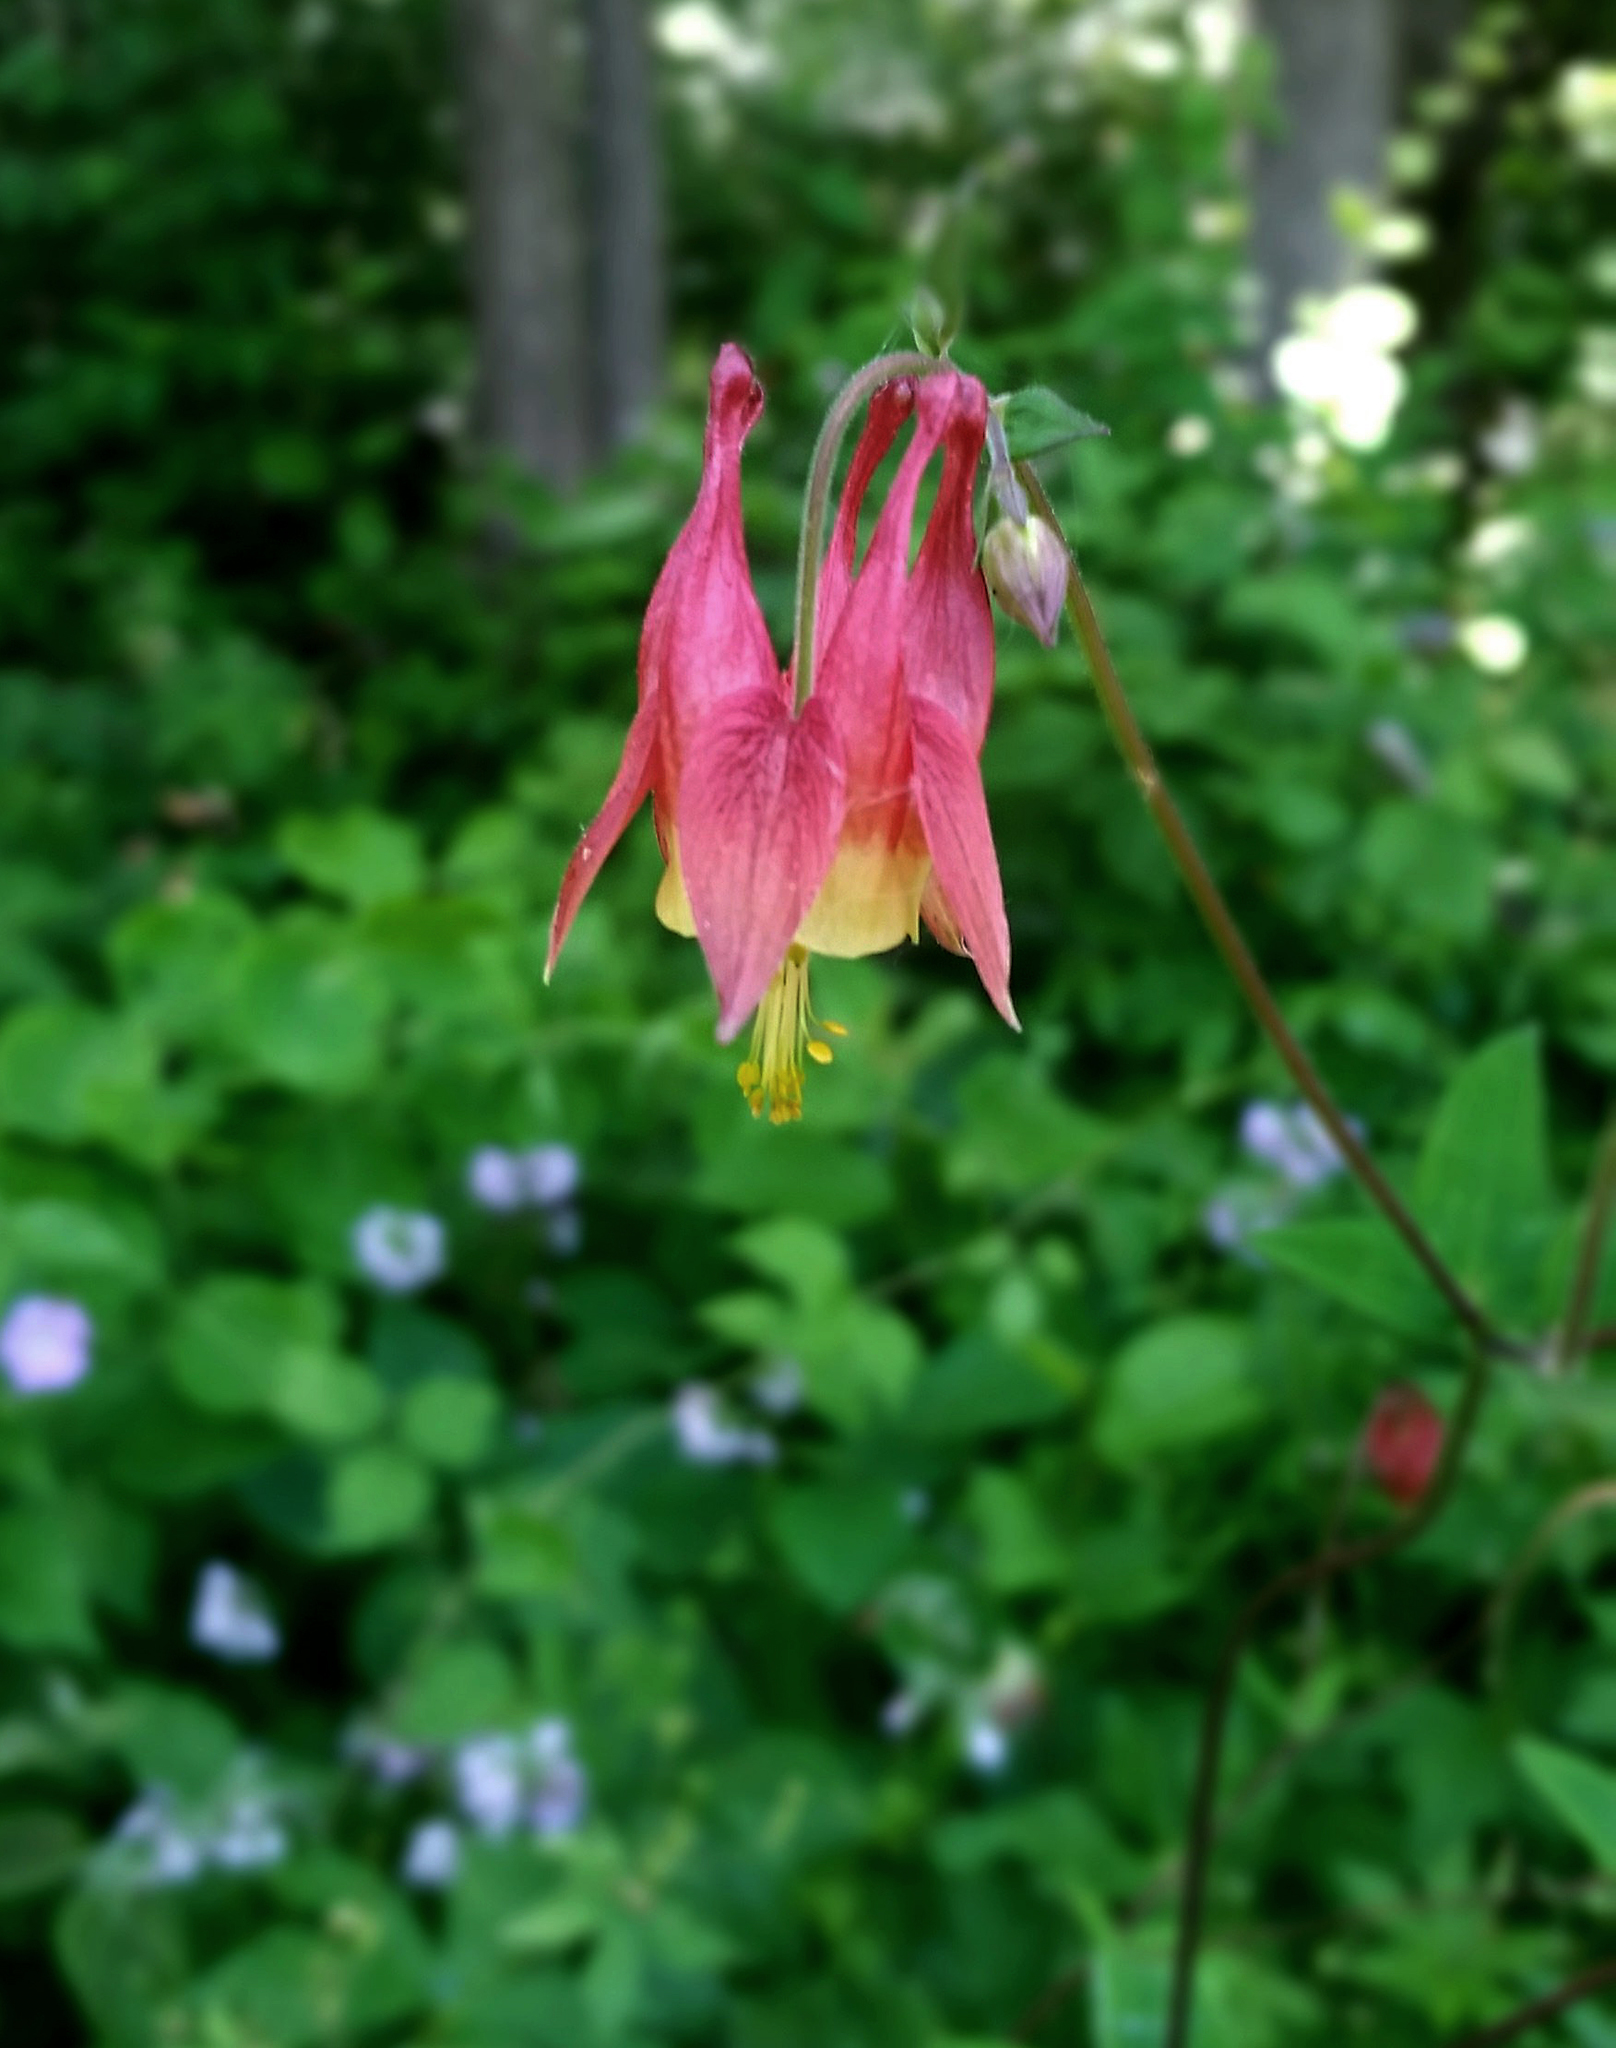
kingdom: Plantae
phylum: Tracheophyta
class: Magnoliopsida
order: Ranunculales
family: Ranunculaceae
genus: Aquilegia
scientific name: Aquilegia canadensis
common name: American columbine
